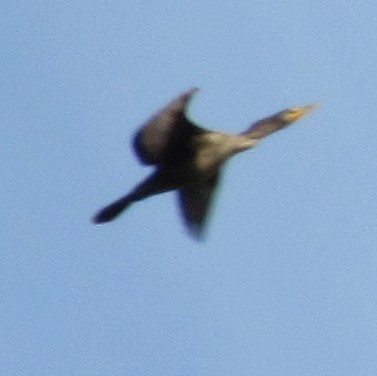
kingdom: Animalia
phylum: Chordata
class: Aves
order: Suliformes
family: Phalacrocoracidae
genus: Phalacrocorax
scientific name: Phalacrocorax auritus
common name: Double-crested cormorant
